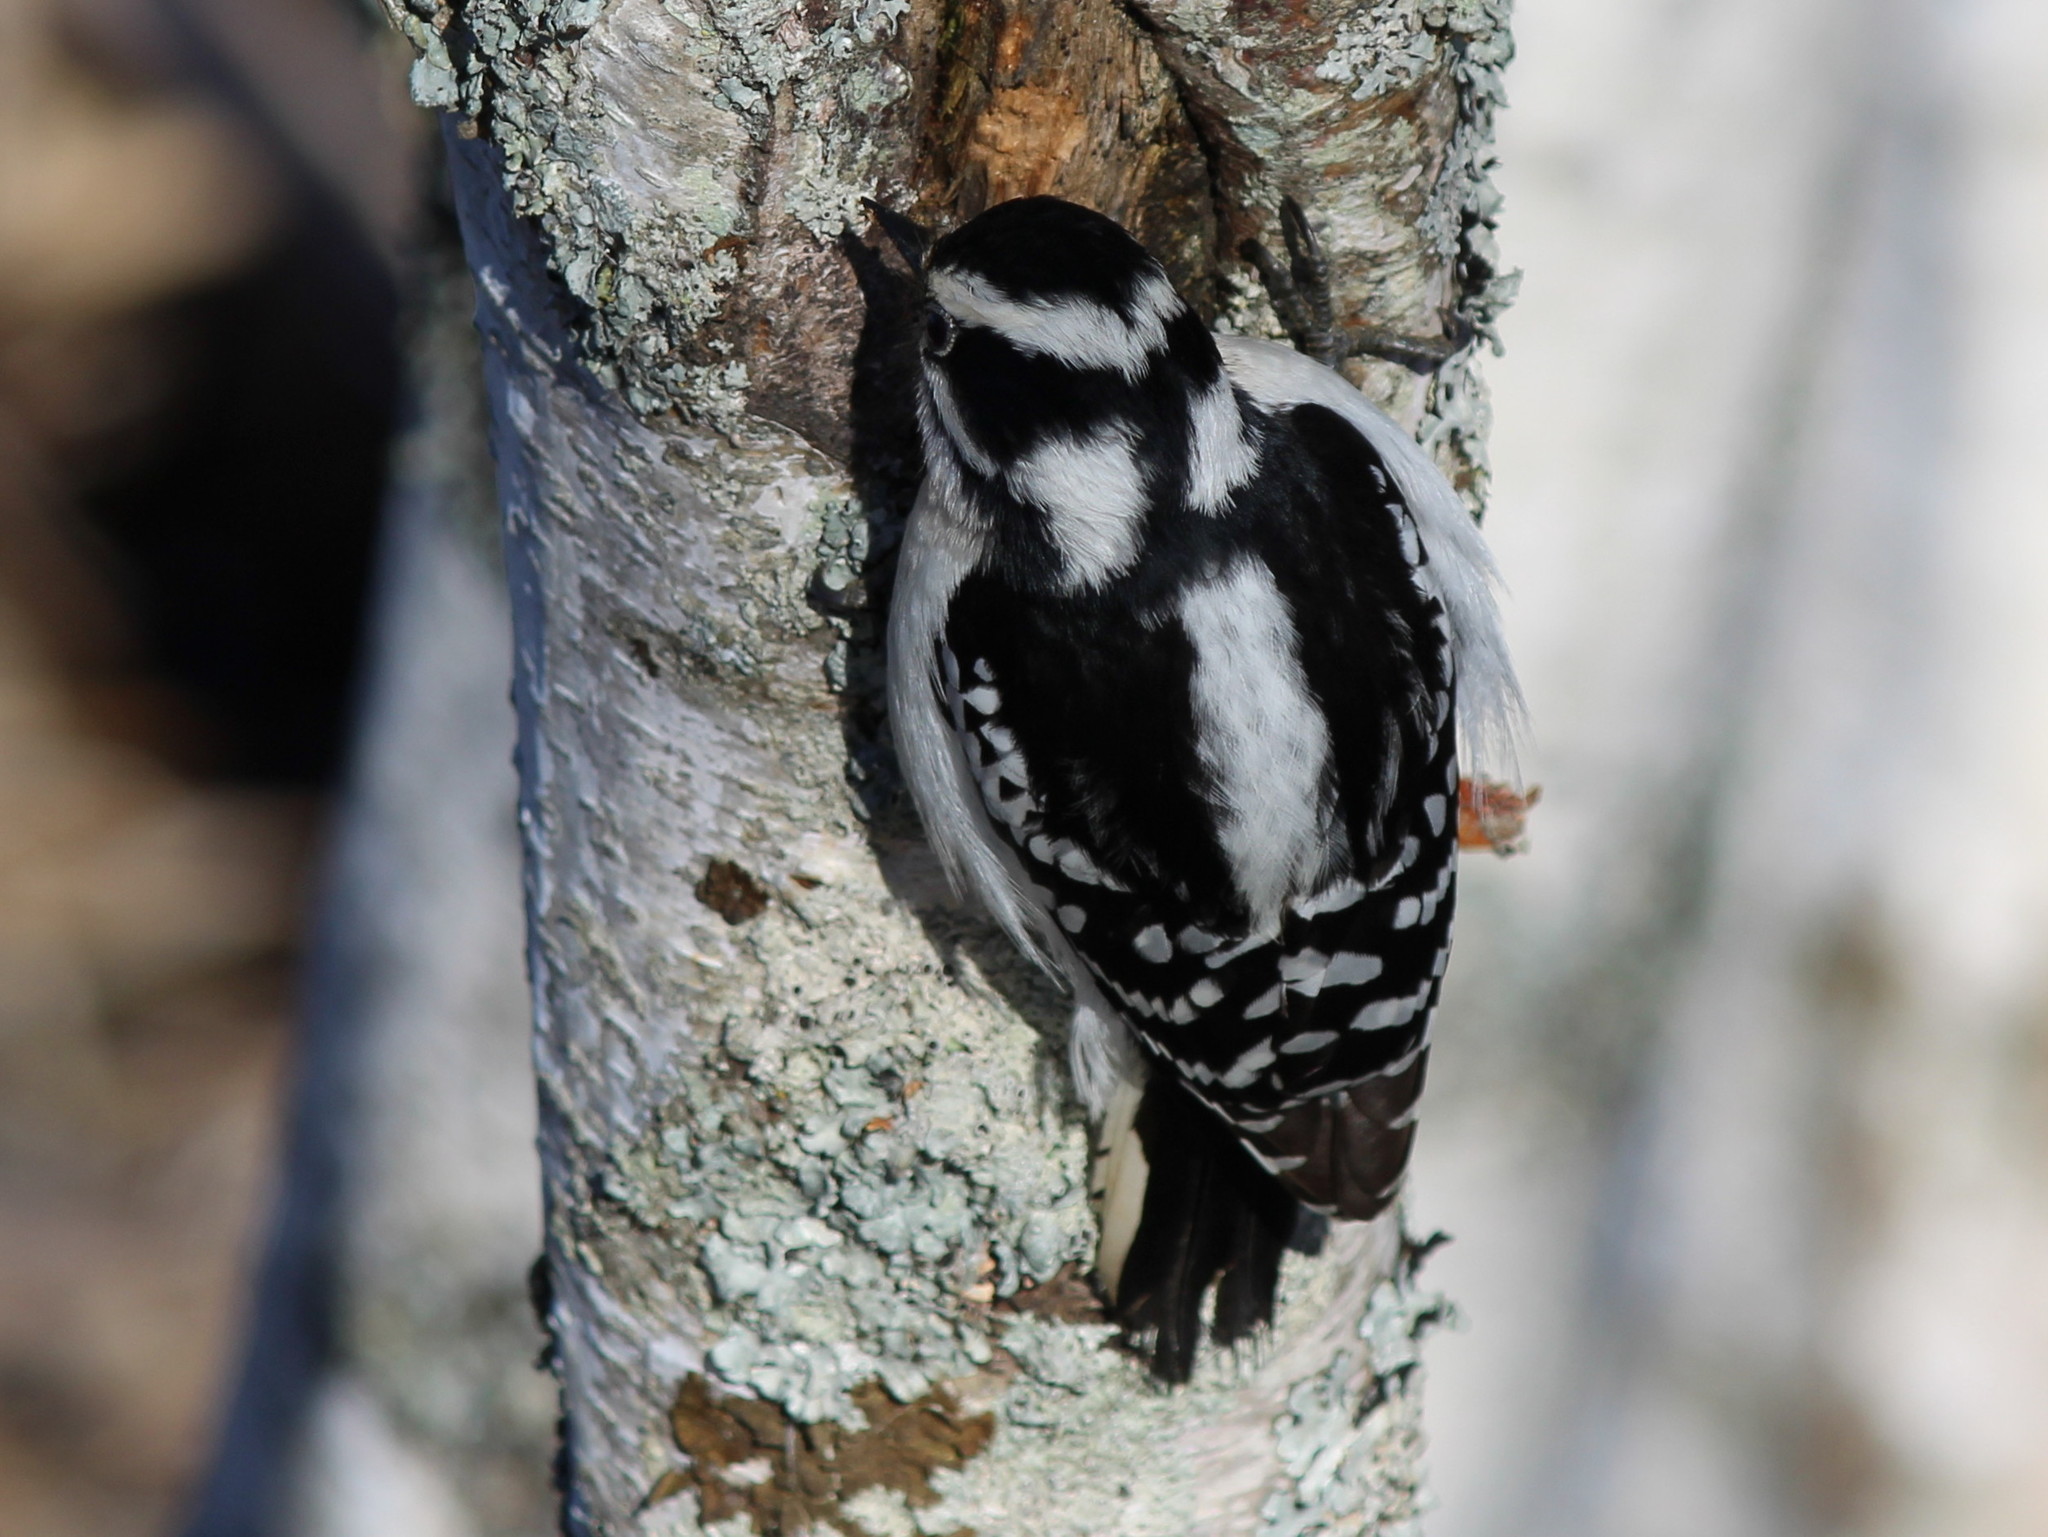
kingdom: Animalia
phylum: Chordata
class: Aves
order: Piciformes
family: Picidae
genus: Dryobates
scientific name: Dryobates pubescens
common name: Downy woodpecker
